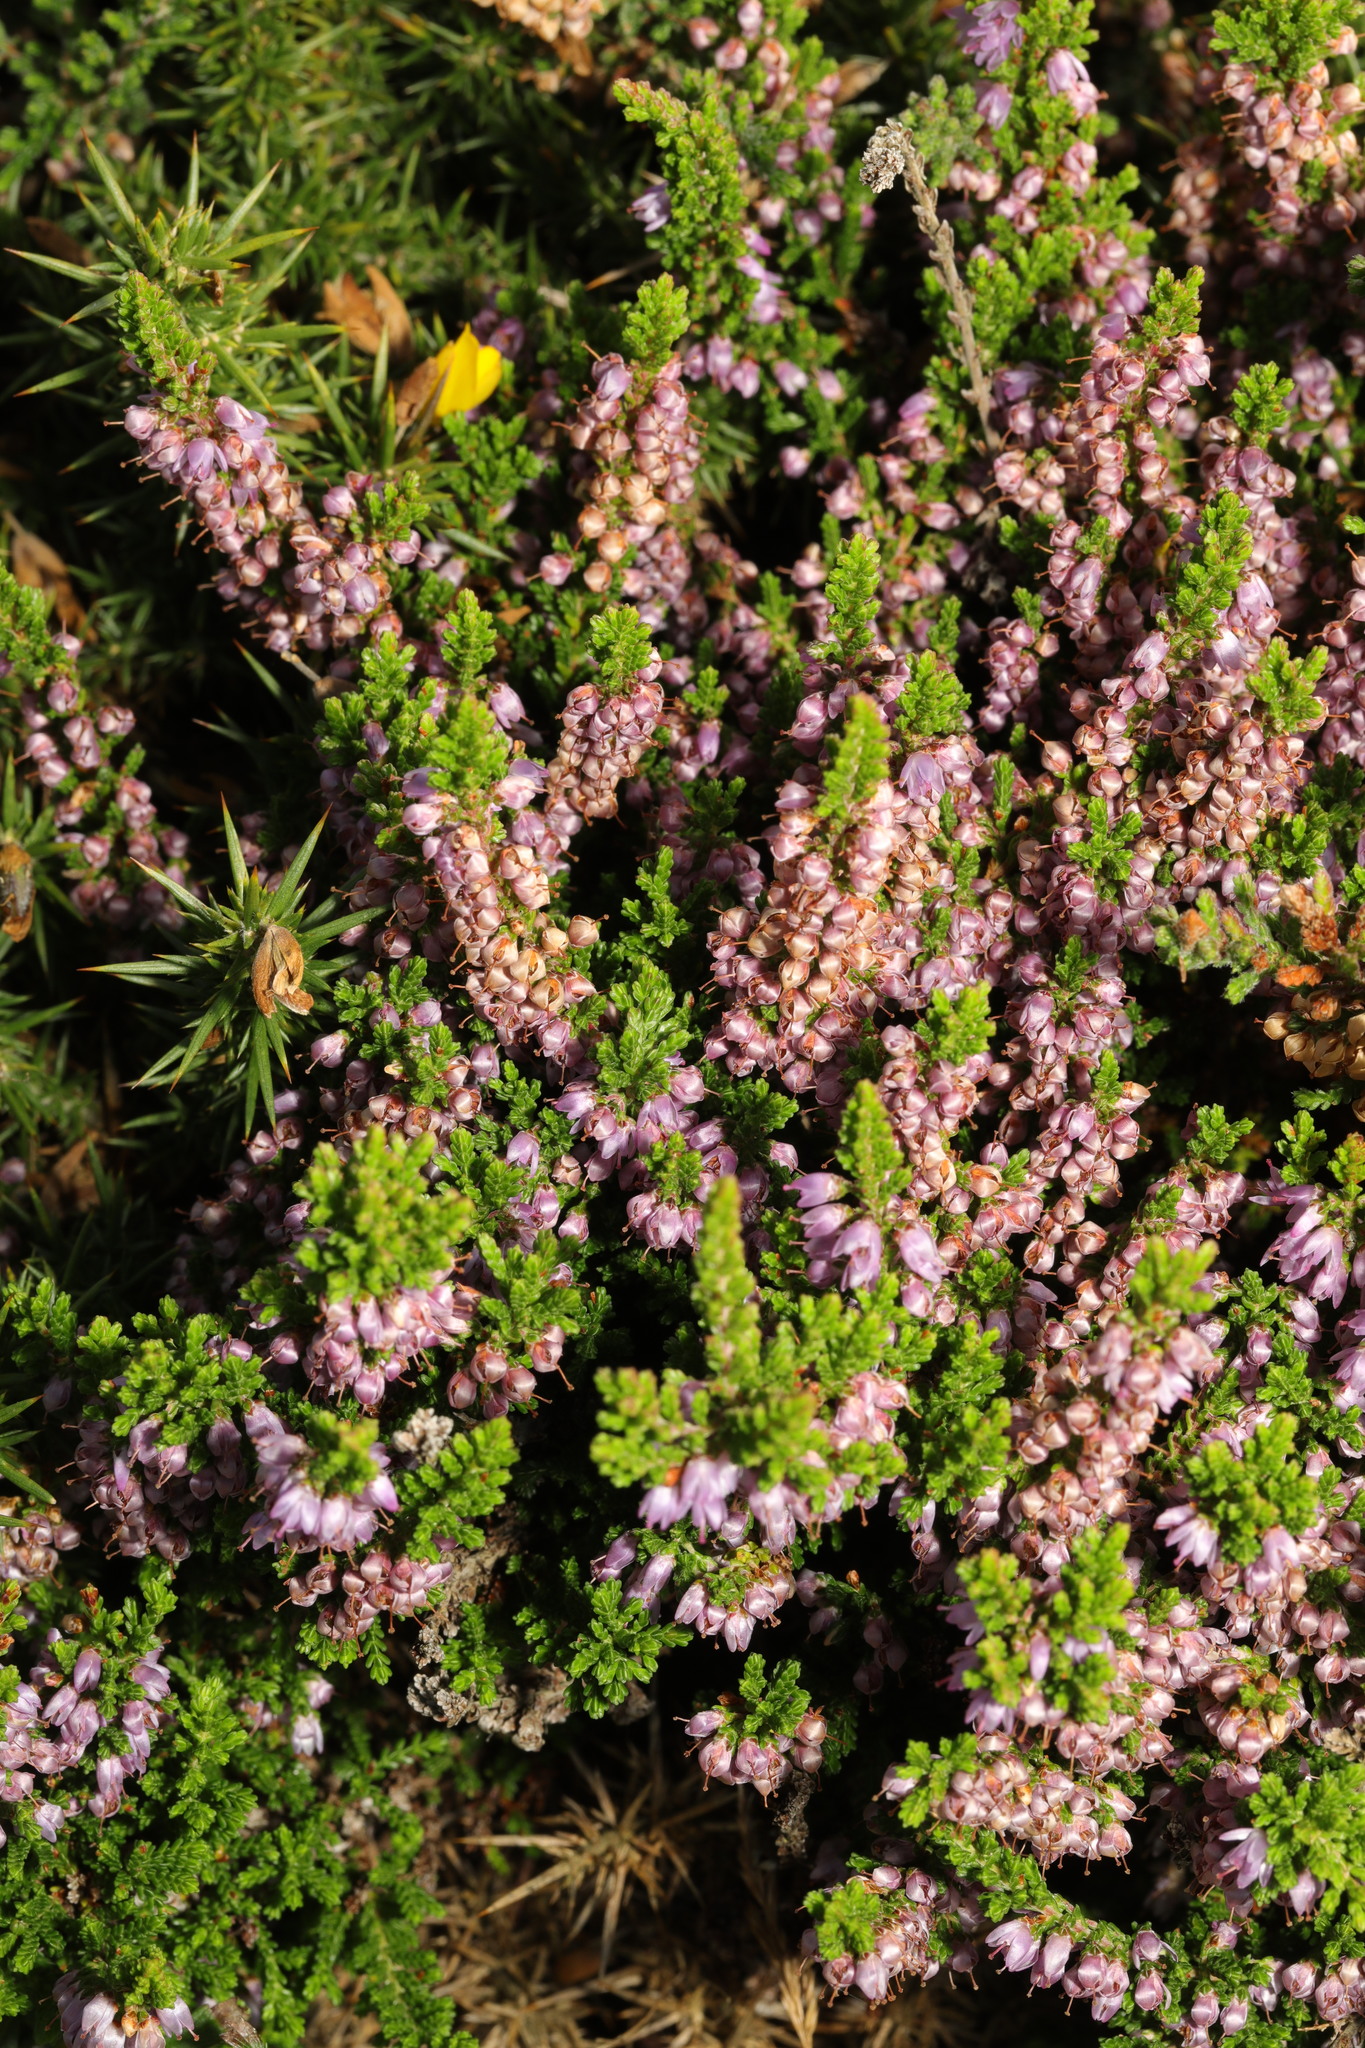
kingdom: Plantae
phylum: Tracheophyta
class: Magnoliopsida
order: Ericales
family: Ericaceae
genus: Calluna
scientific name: Calluna vulgaris
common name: Heather
